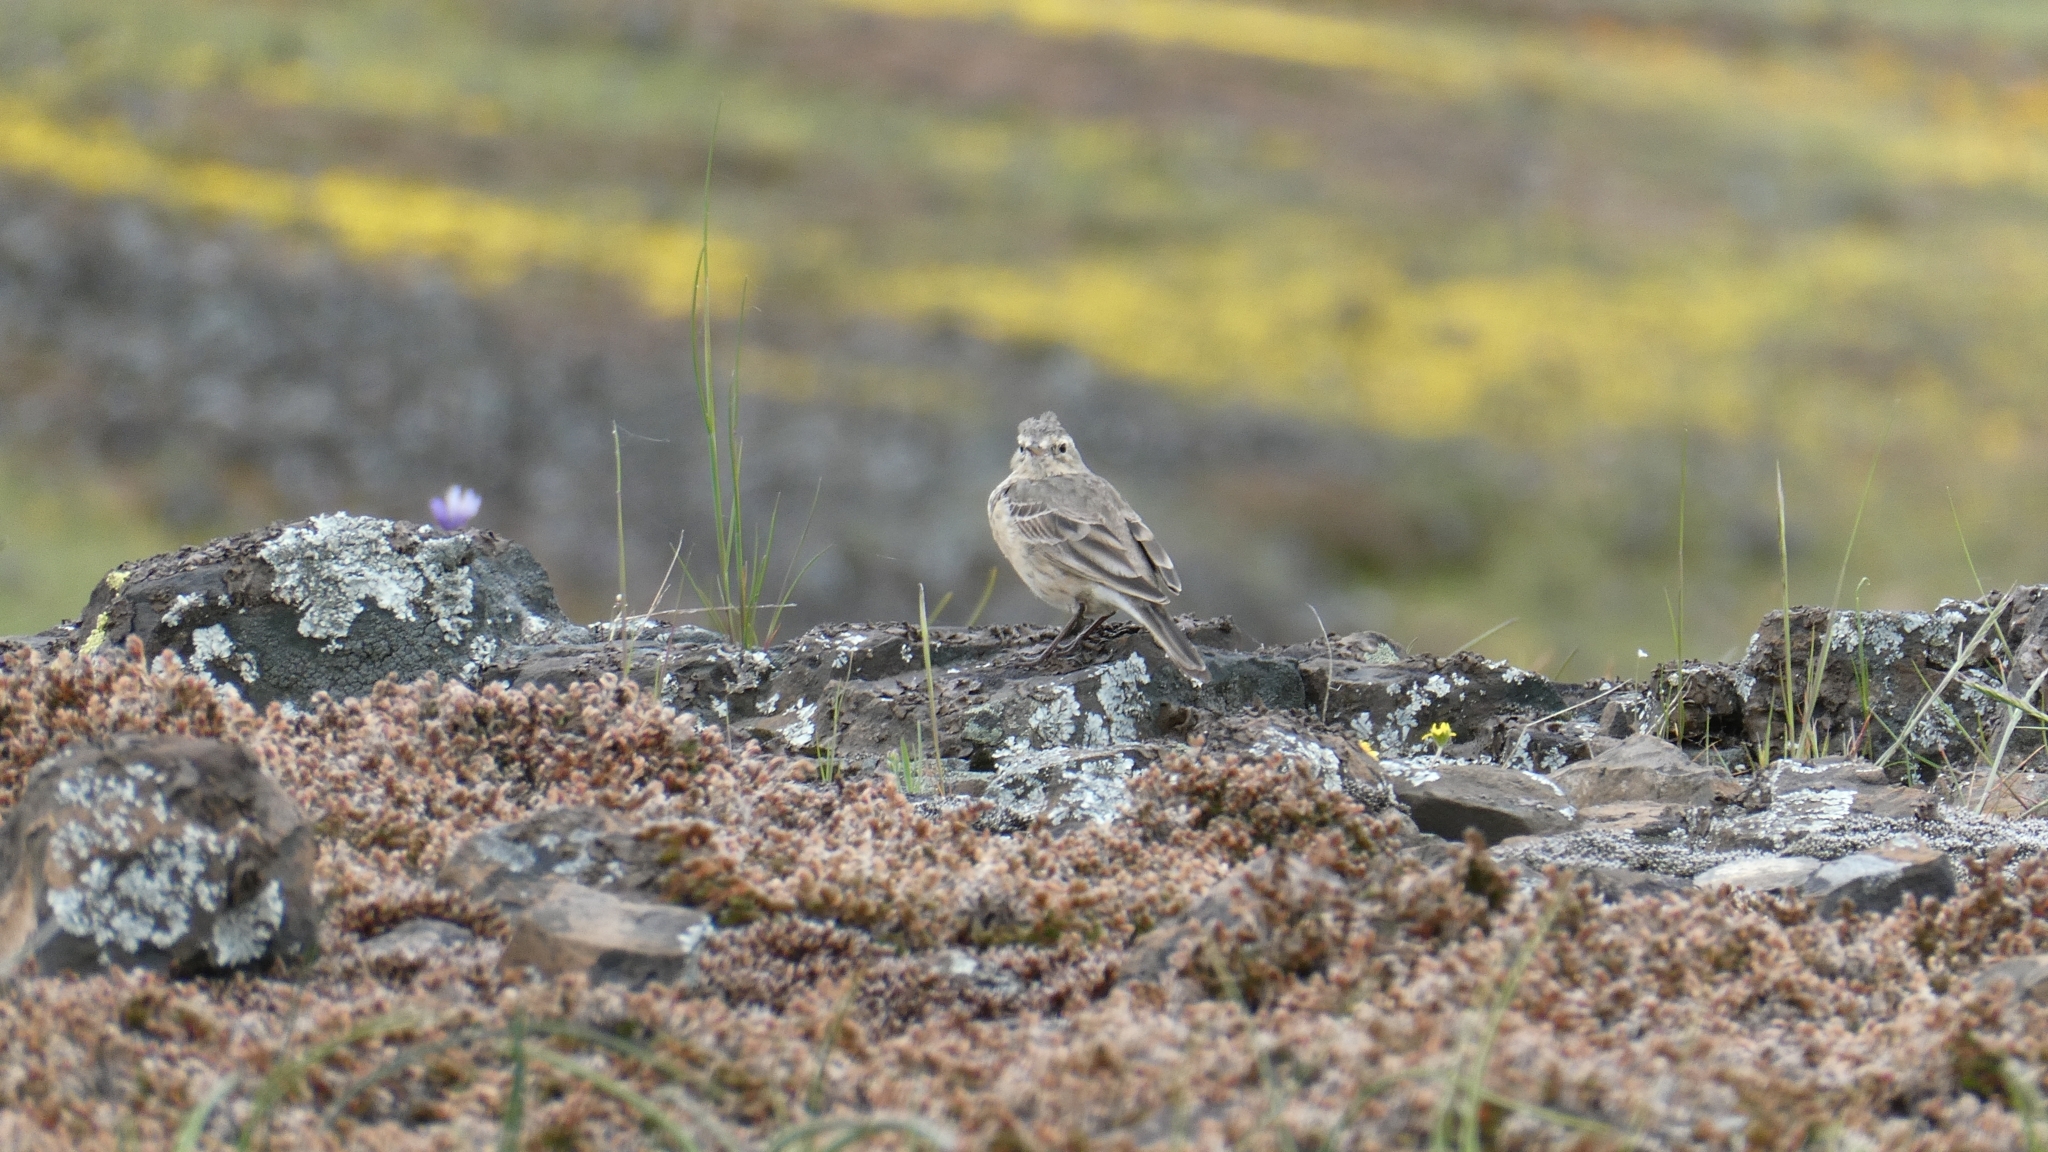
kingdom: Animalia
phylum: Chordata
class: Aves
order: Passeriformes
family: Motacillidae
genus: Anthus
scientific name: Anthus rubescens
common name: Buff-bellied pipit
